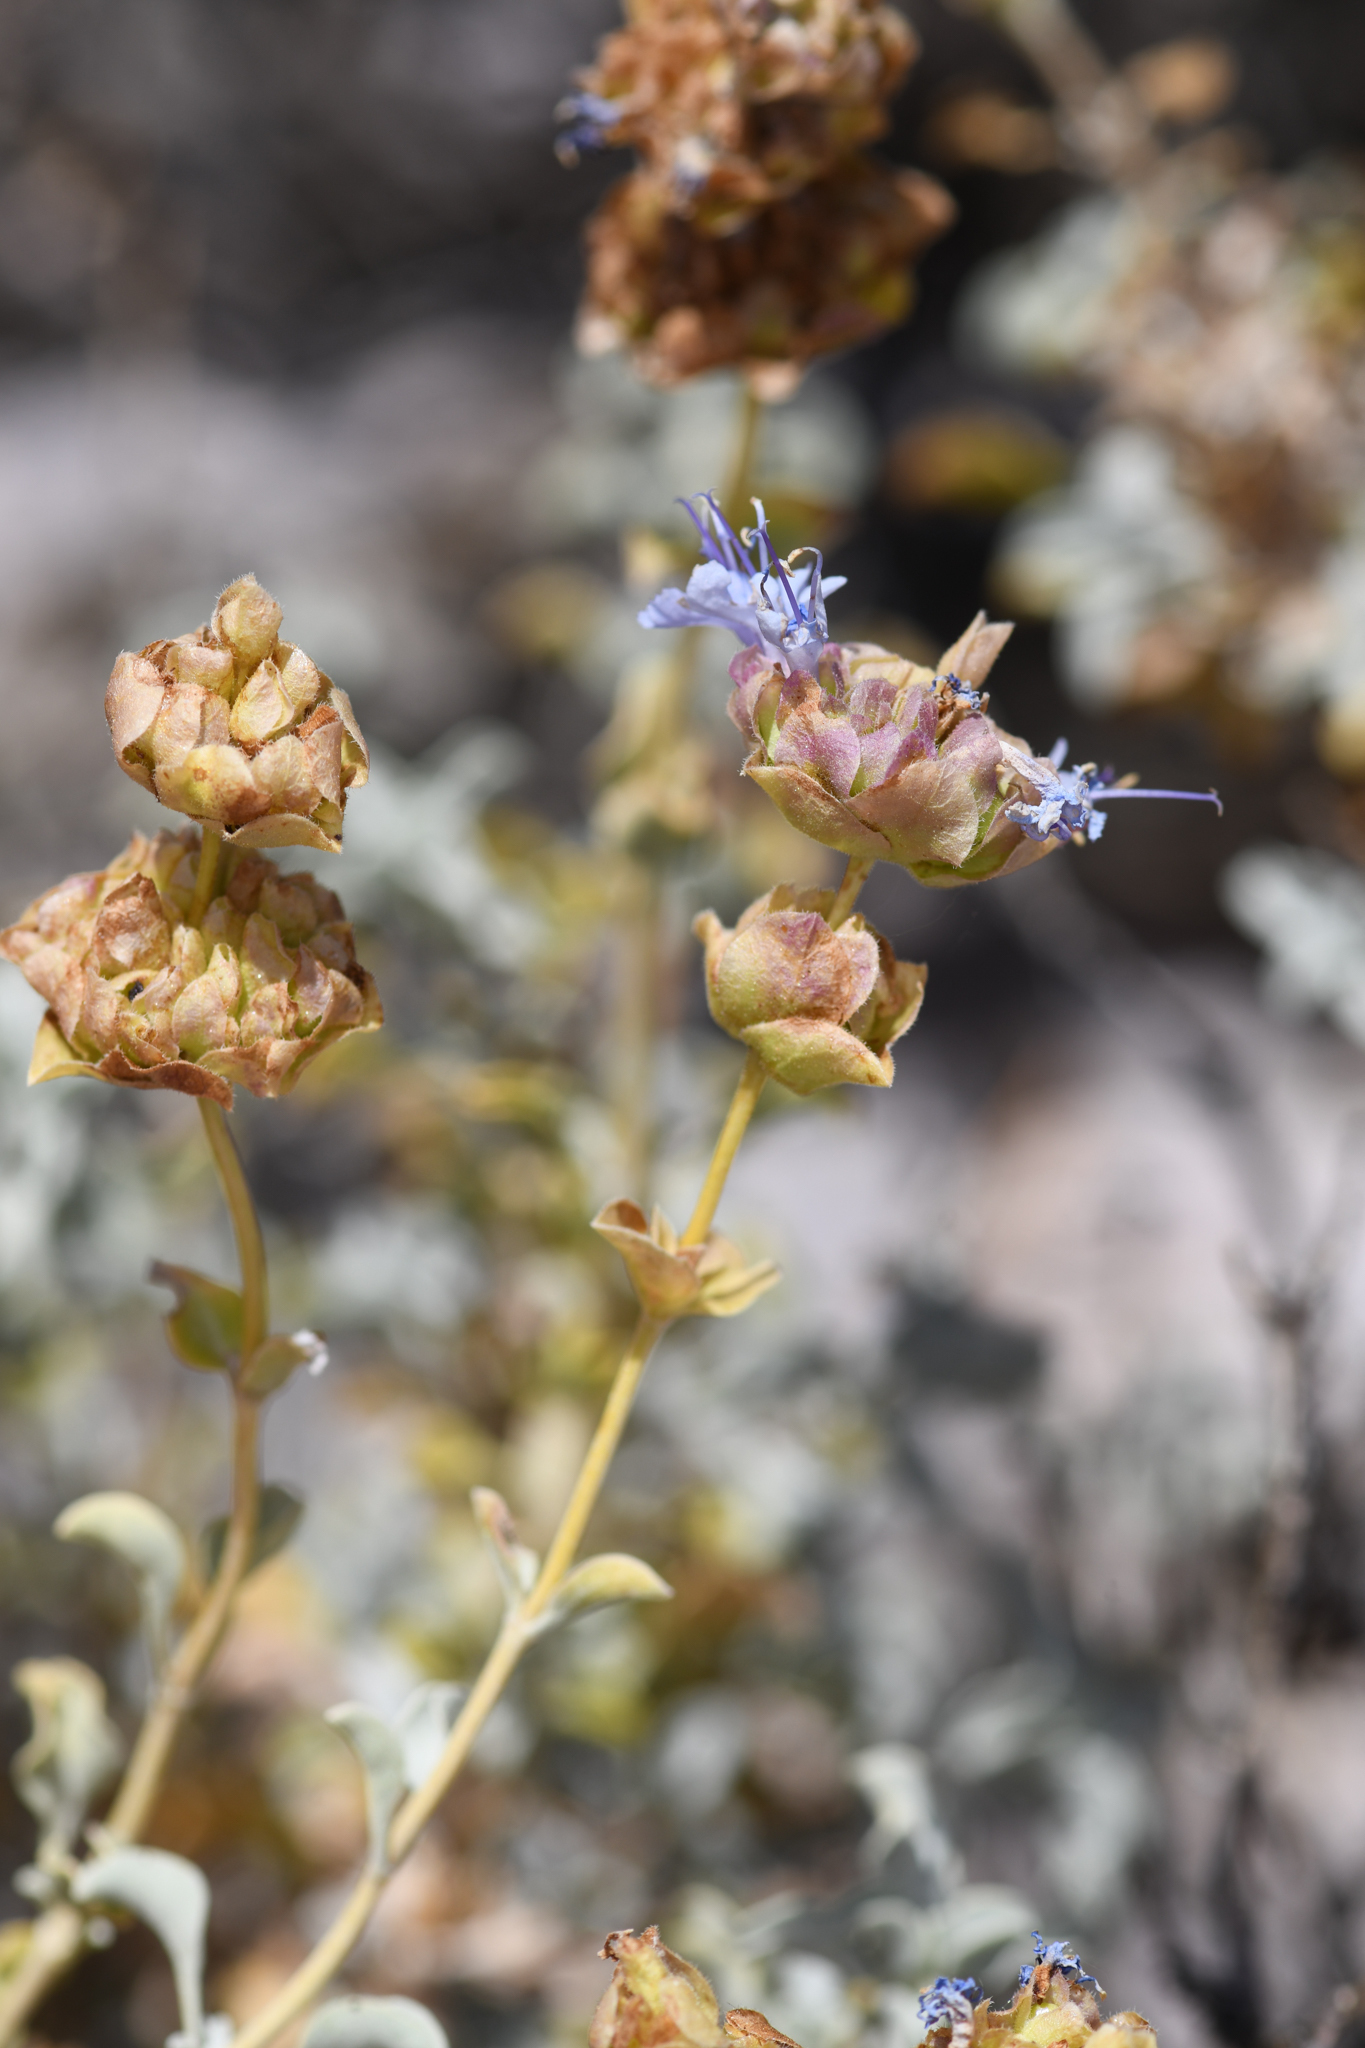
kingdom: Plantae
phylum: Tracheophyta
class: Magnoliopsida
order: Lamiales
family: Lamiaceae
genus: Salvia
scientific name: Salvia dorrii
